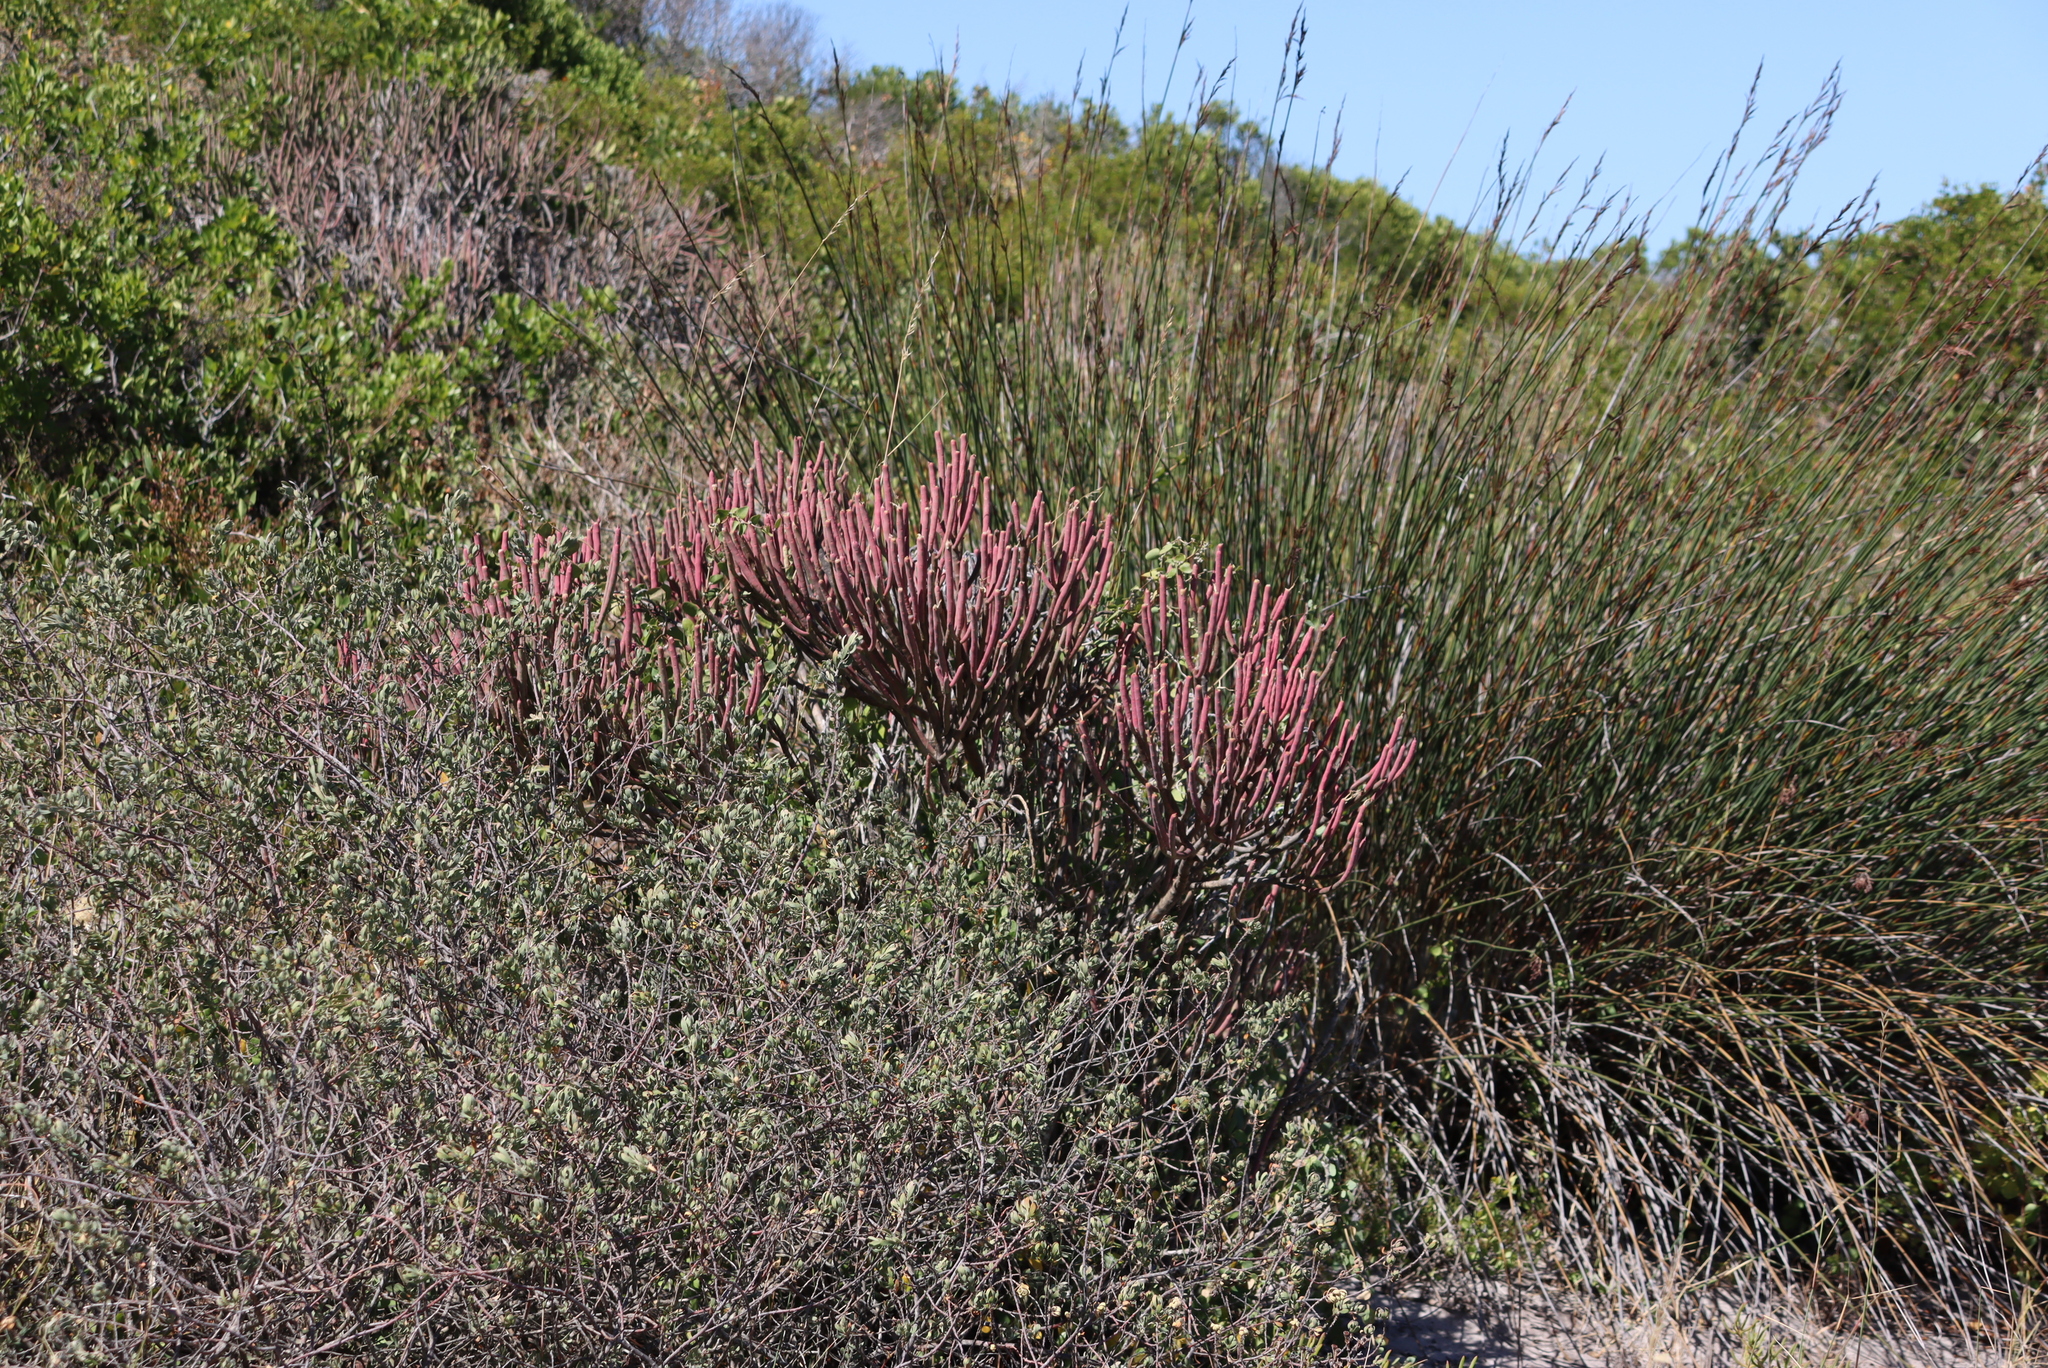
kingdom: Plantae
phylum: Tracheophyta
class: Magnoliopsida
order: Malpighiales
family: Euphorbiaceae
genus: Euphorbia
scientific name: Euphorbia mauritanica
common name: Jackal's-food
